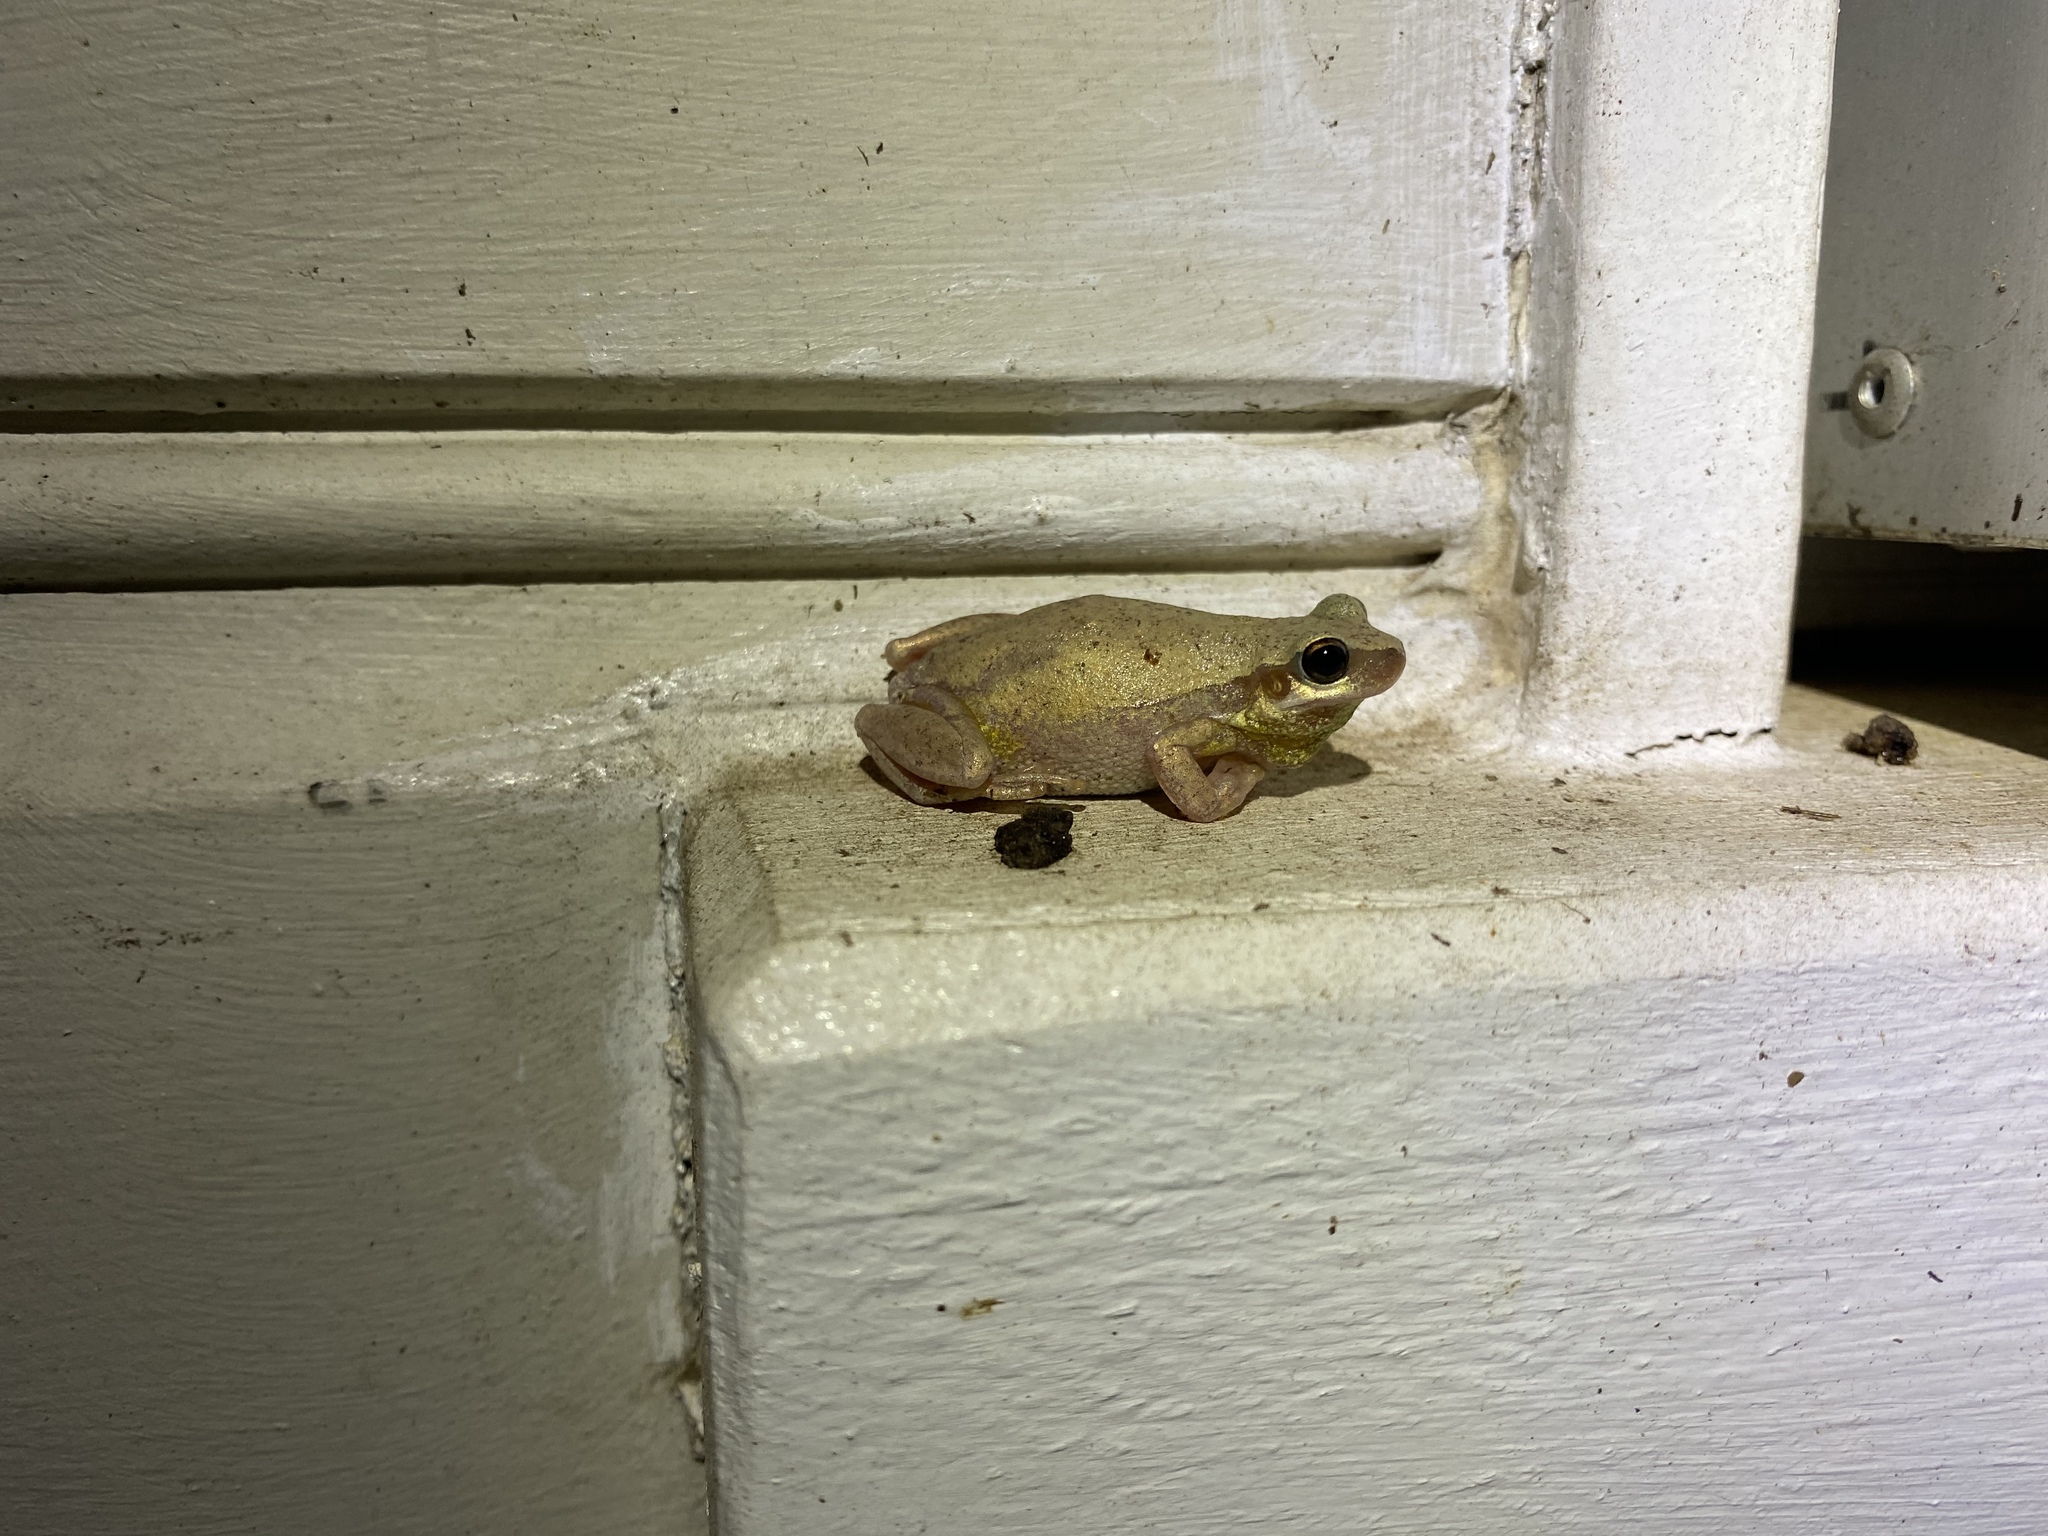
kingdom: Animalia
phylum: Chordata
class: Amphibia
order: Anura
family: Pelodryadidae
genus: Litoria
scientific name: Litoria rubella
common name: Desert tree frog
